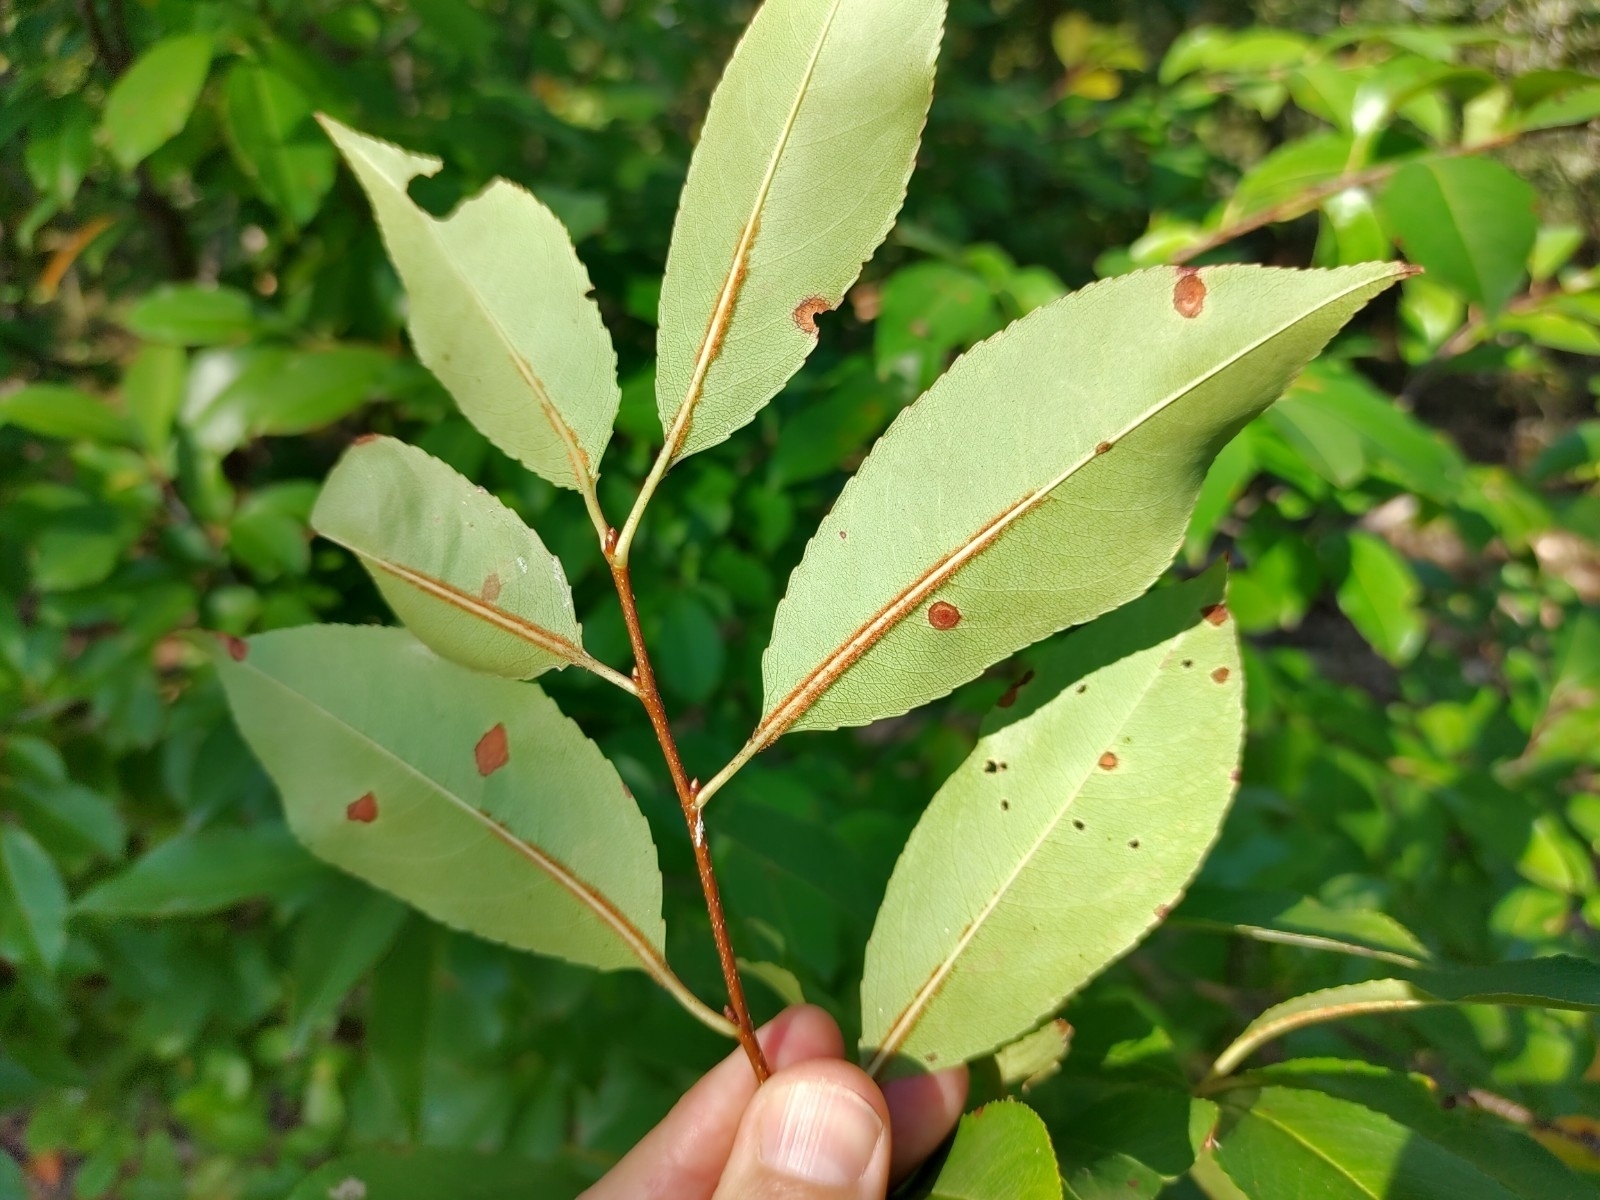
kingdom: Plantae
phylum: Tracheophyta
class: Magnoliopsida
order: Rosales
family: Rosaceae
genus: Prunus
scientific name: Prunus serotina
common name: Black cherry
